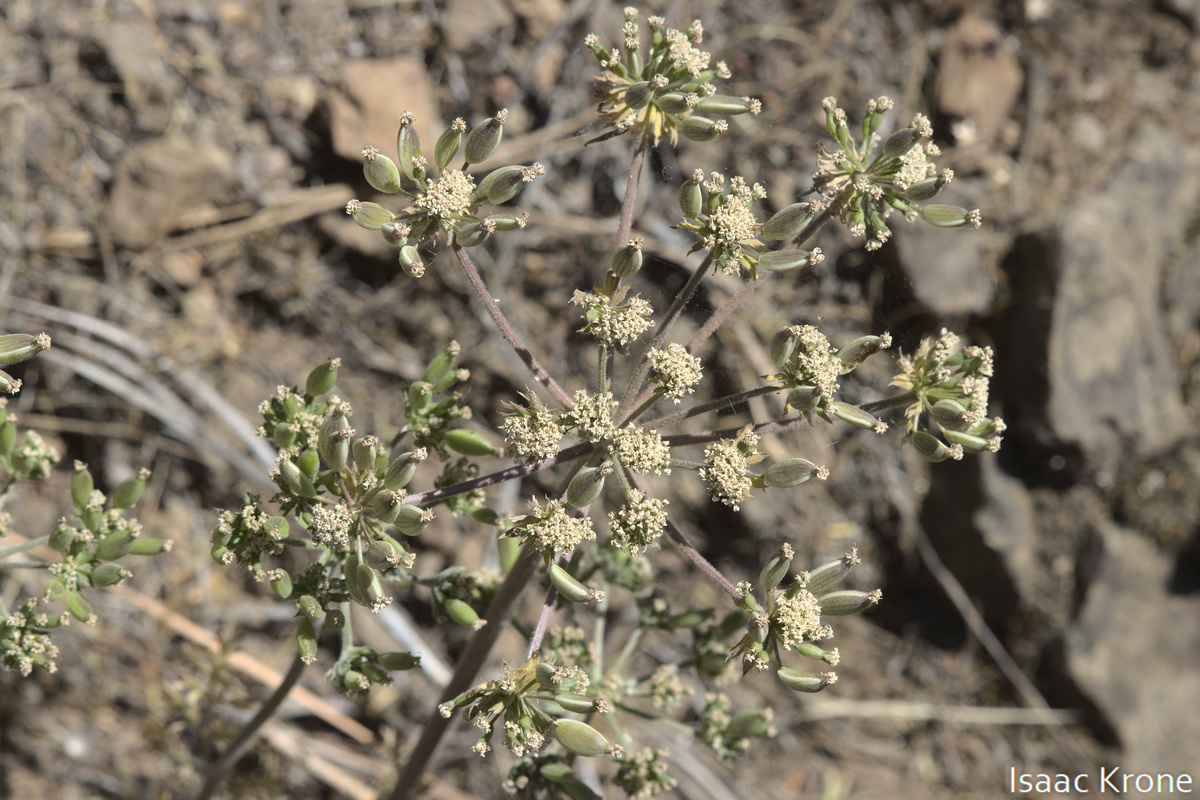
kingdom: Plantae
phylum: Tracheophyta
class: Magnoliopsida
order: Apiales
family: Apiaceae
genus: Lomatium
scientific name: Lomatium macrocarpum
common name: Big-seed biscuitroot
